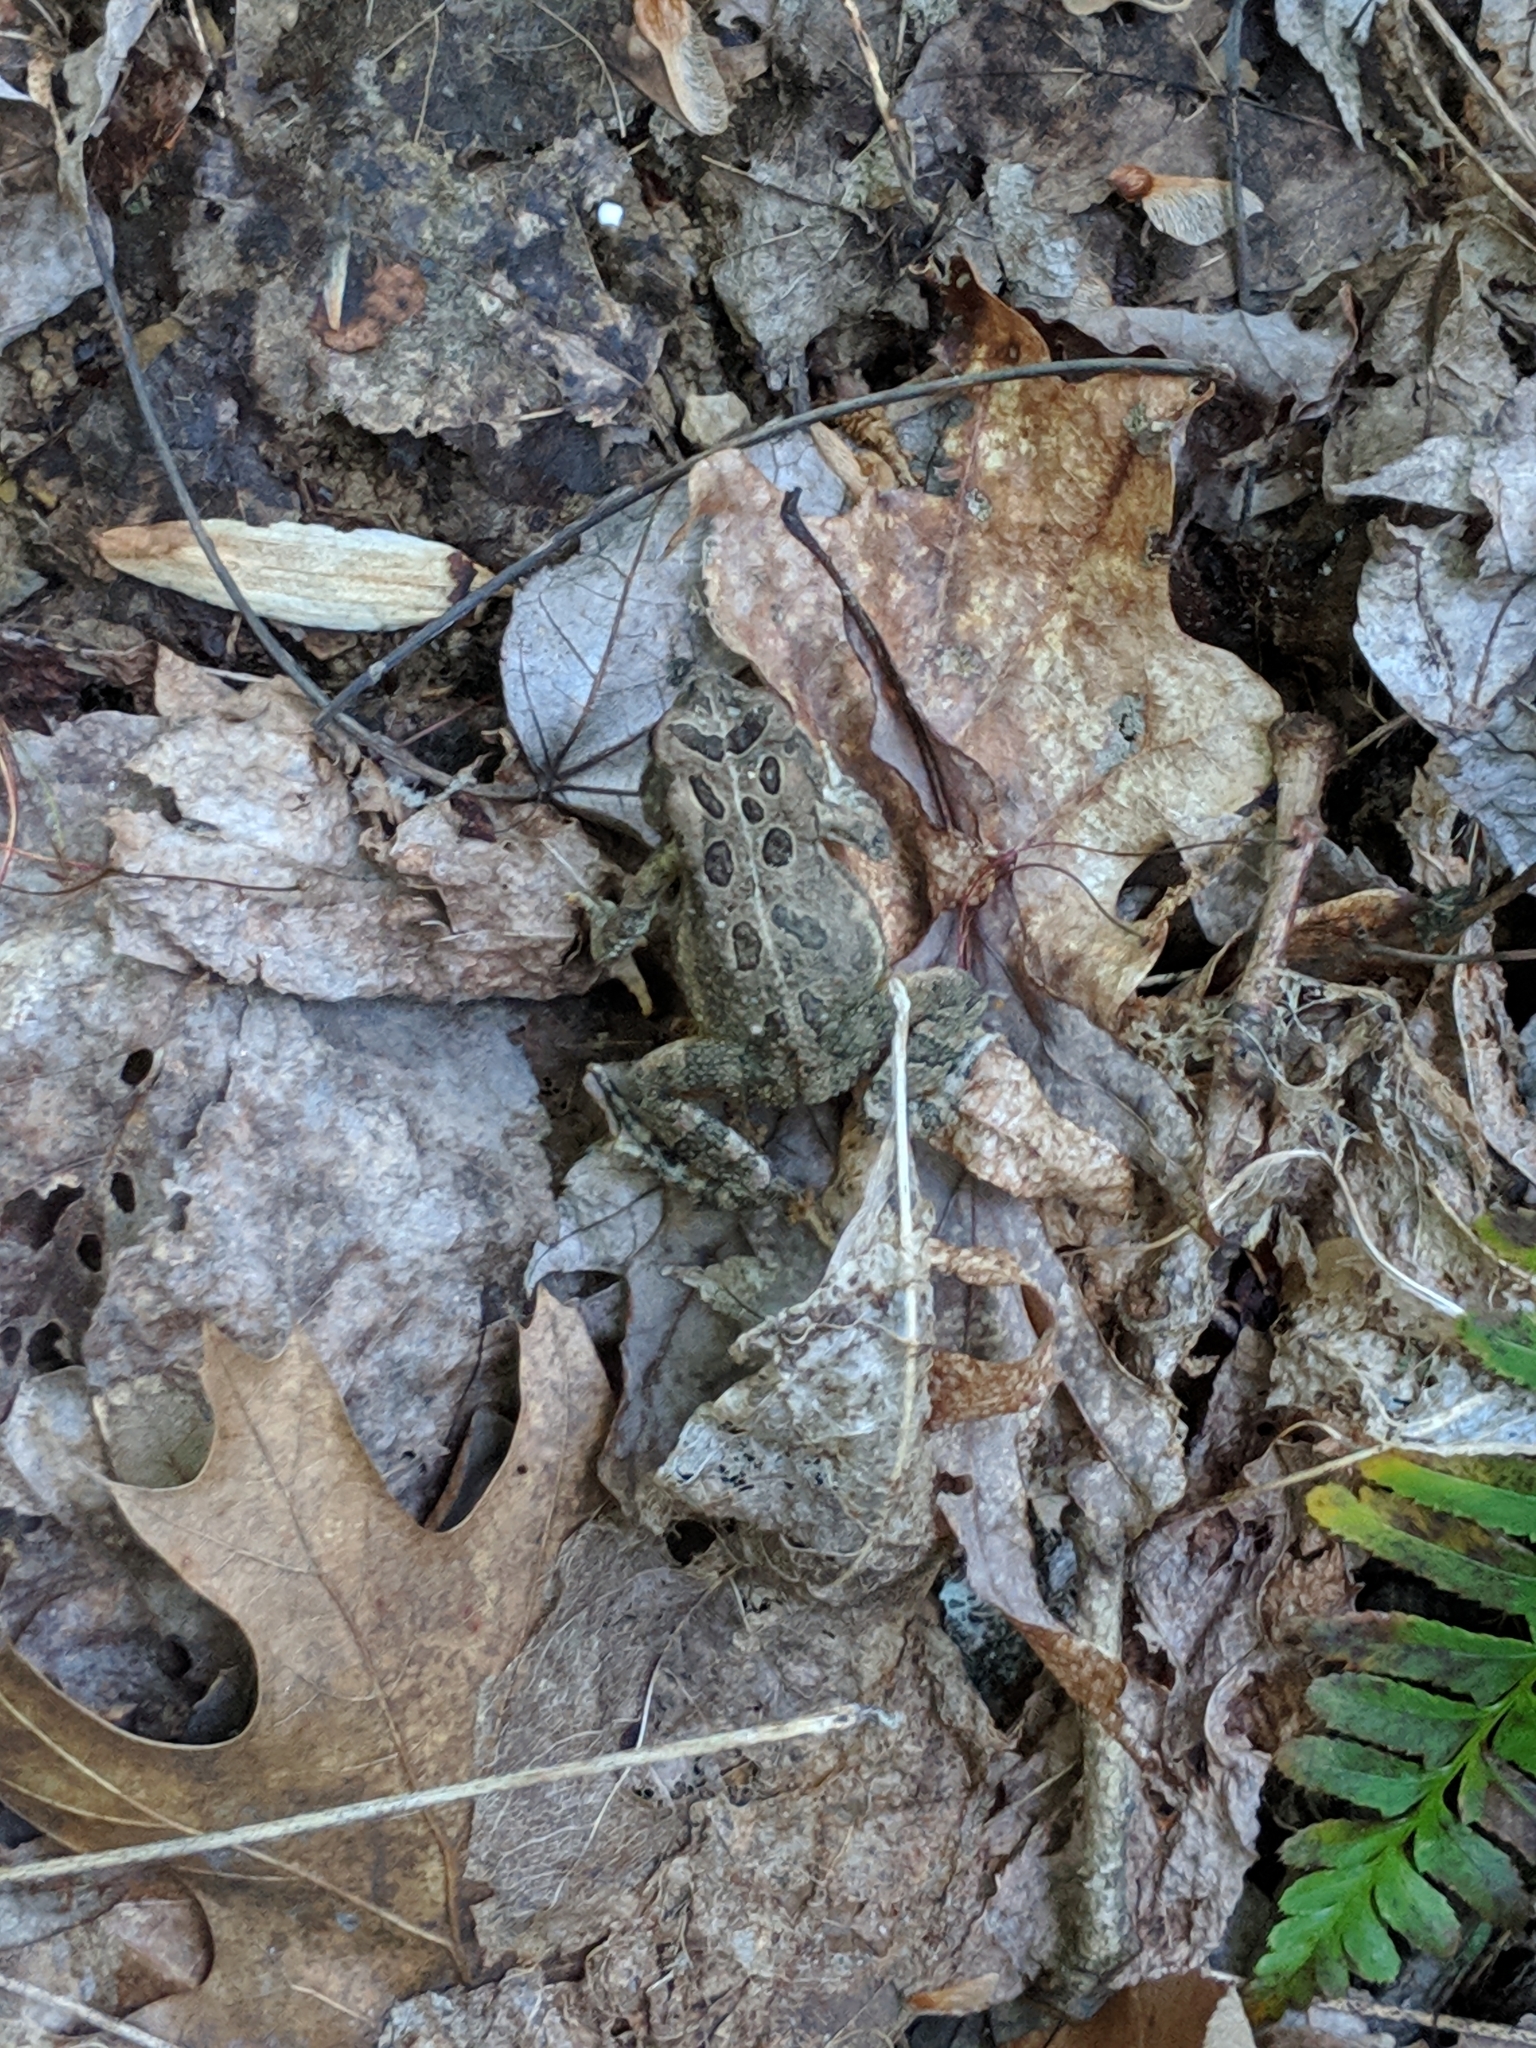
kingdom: Animalia
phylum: Chordata
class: Amphibia
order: Anura
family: Bufonidae
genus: Anaxyrus
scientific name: Anaxyrus americanus
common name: American toad
